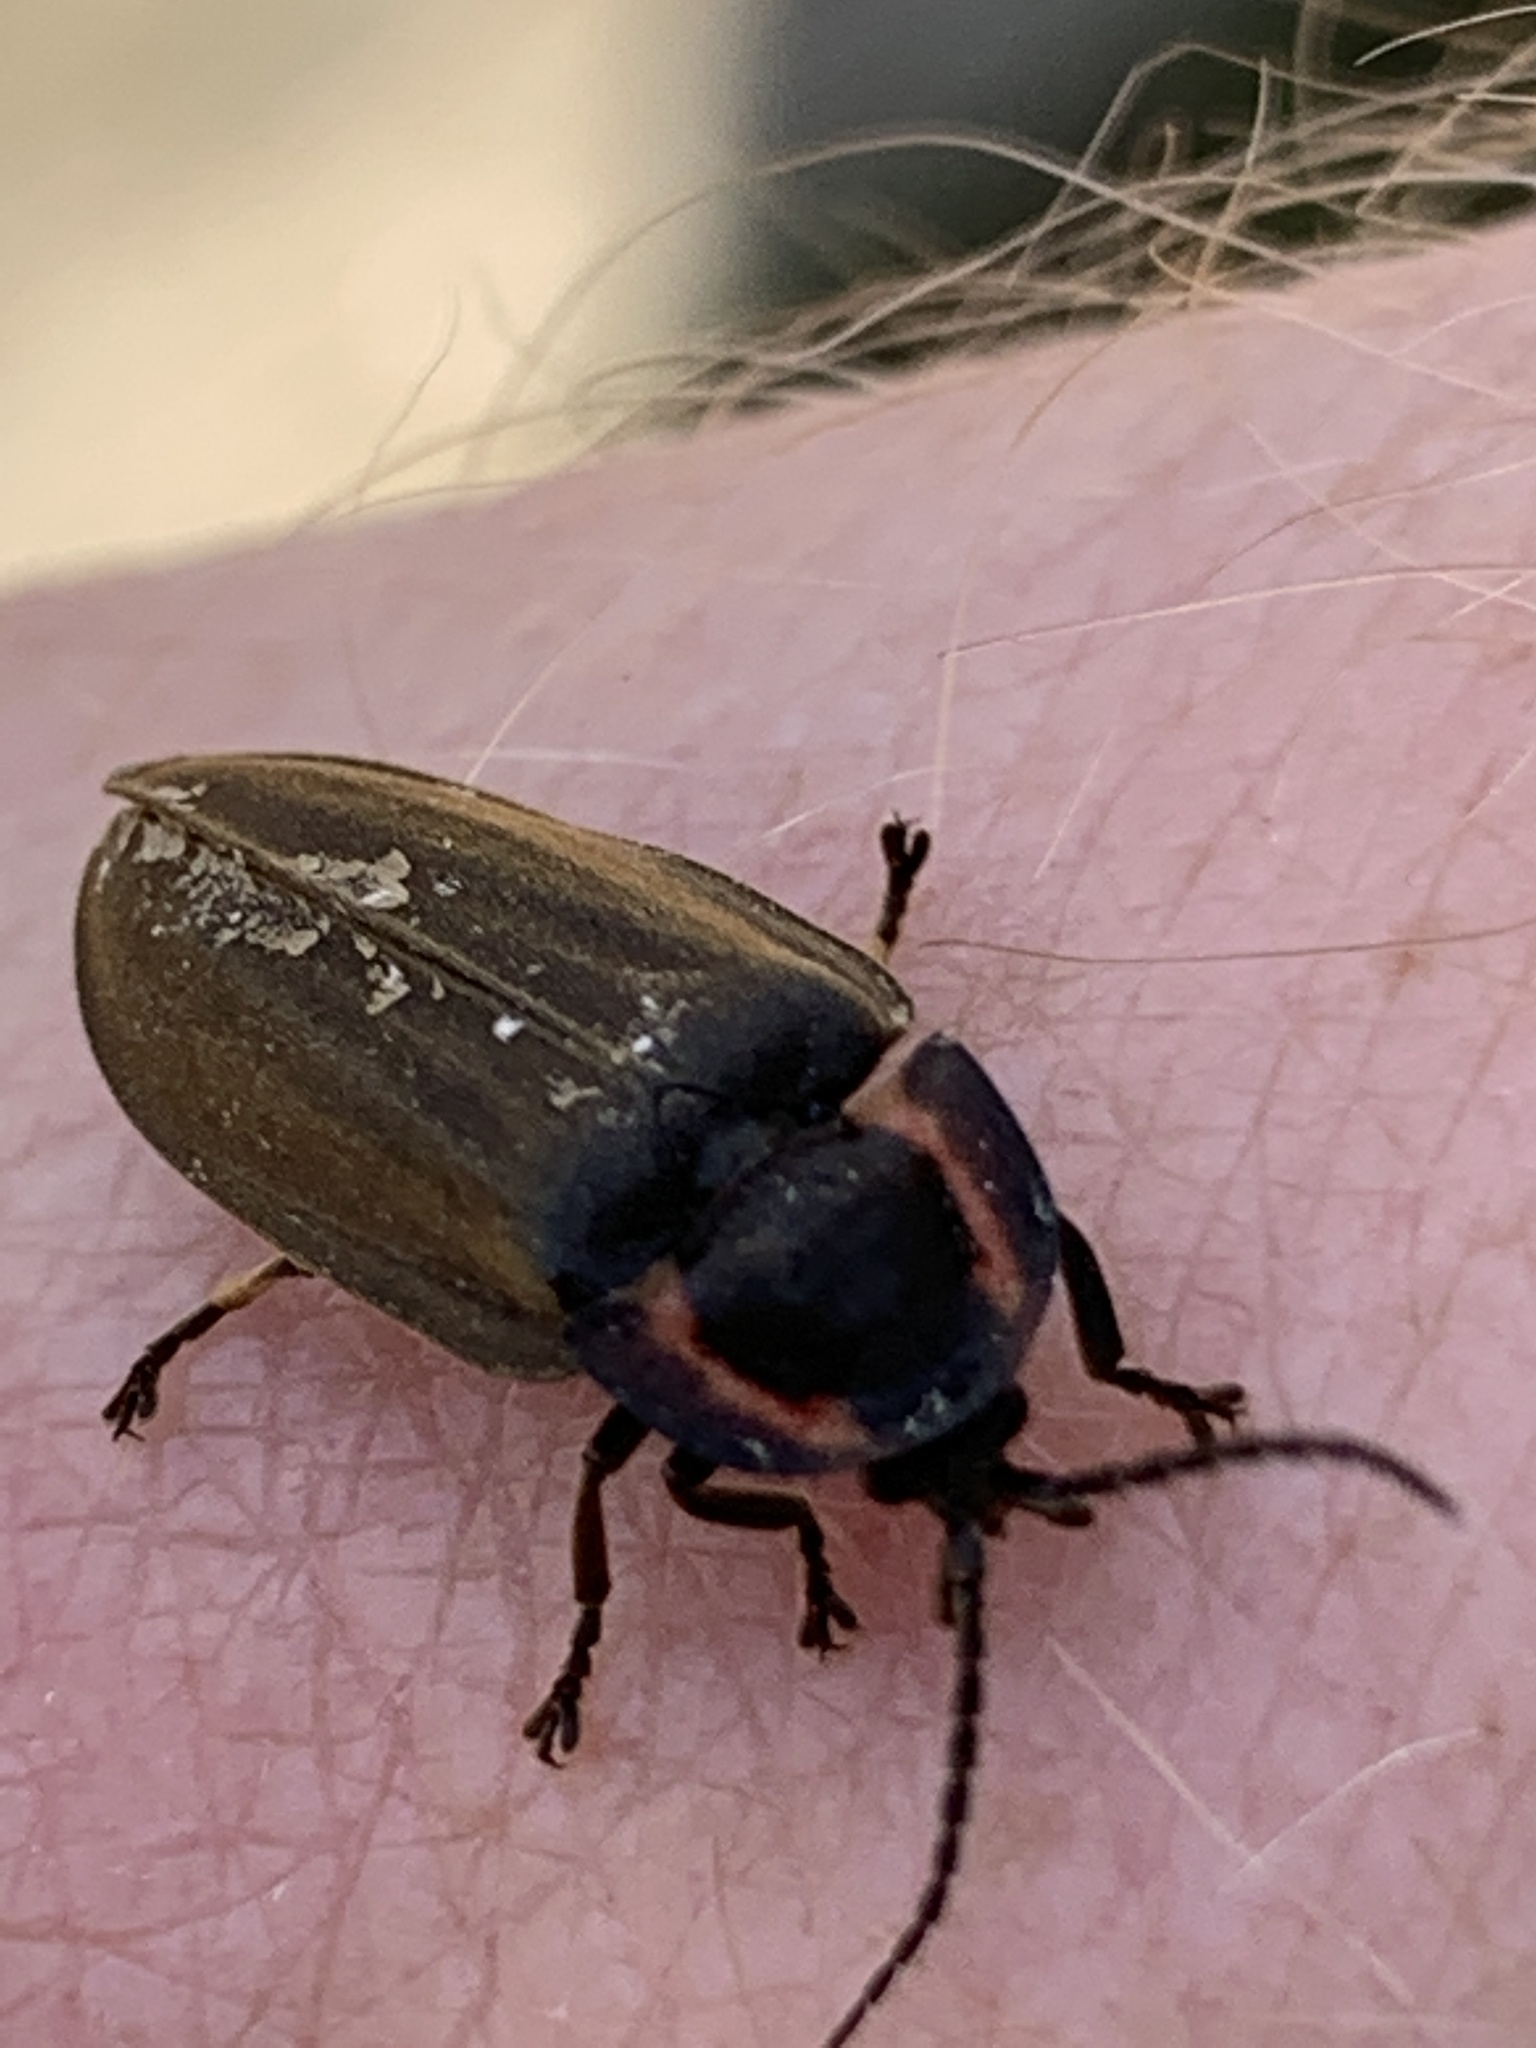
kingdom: Animalia
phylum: Arthropoda
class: Insecta
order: Coleoptera
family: Lampyridae
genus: Photinus
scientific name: Photinus corrusca
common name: Winter firefly
